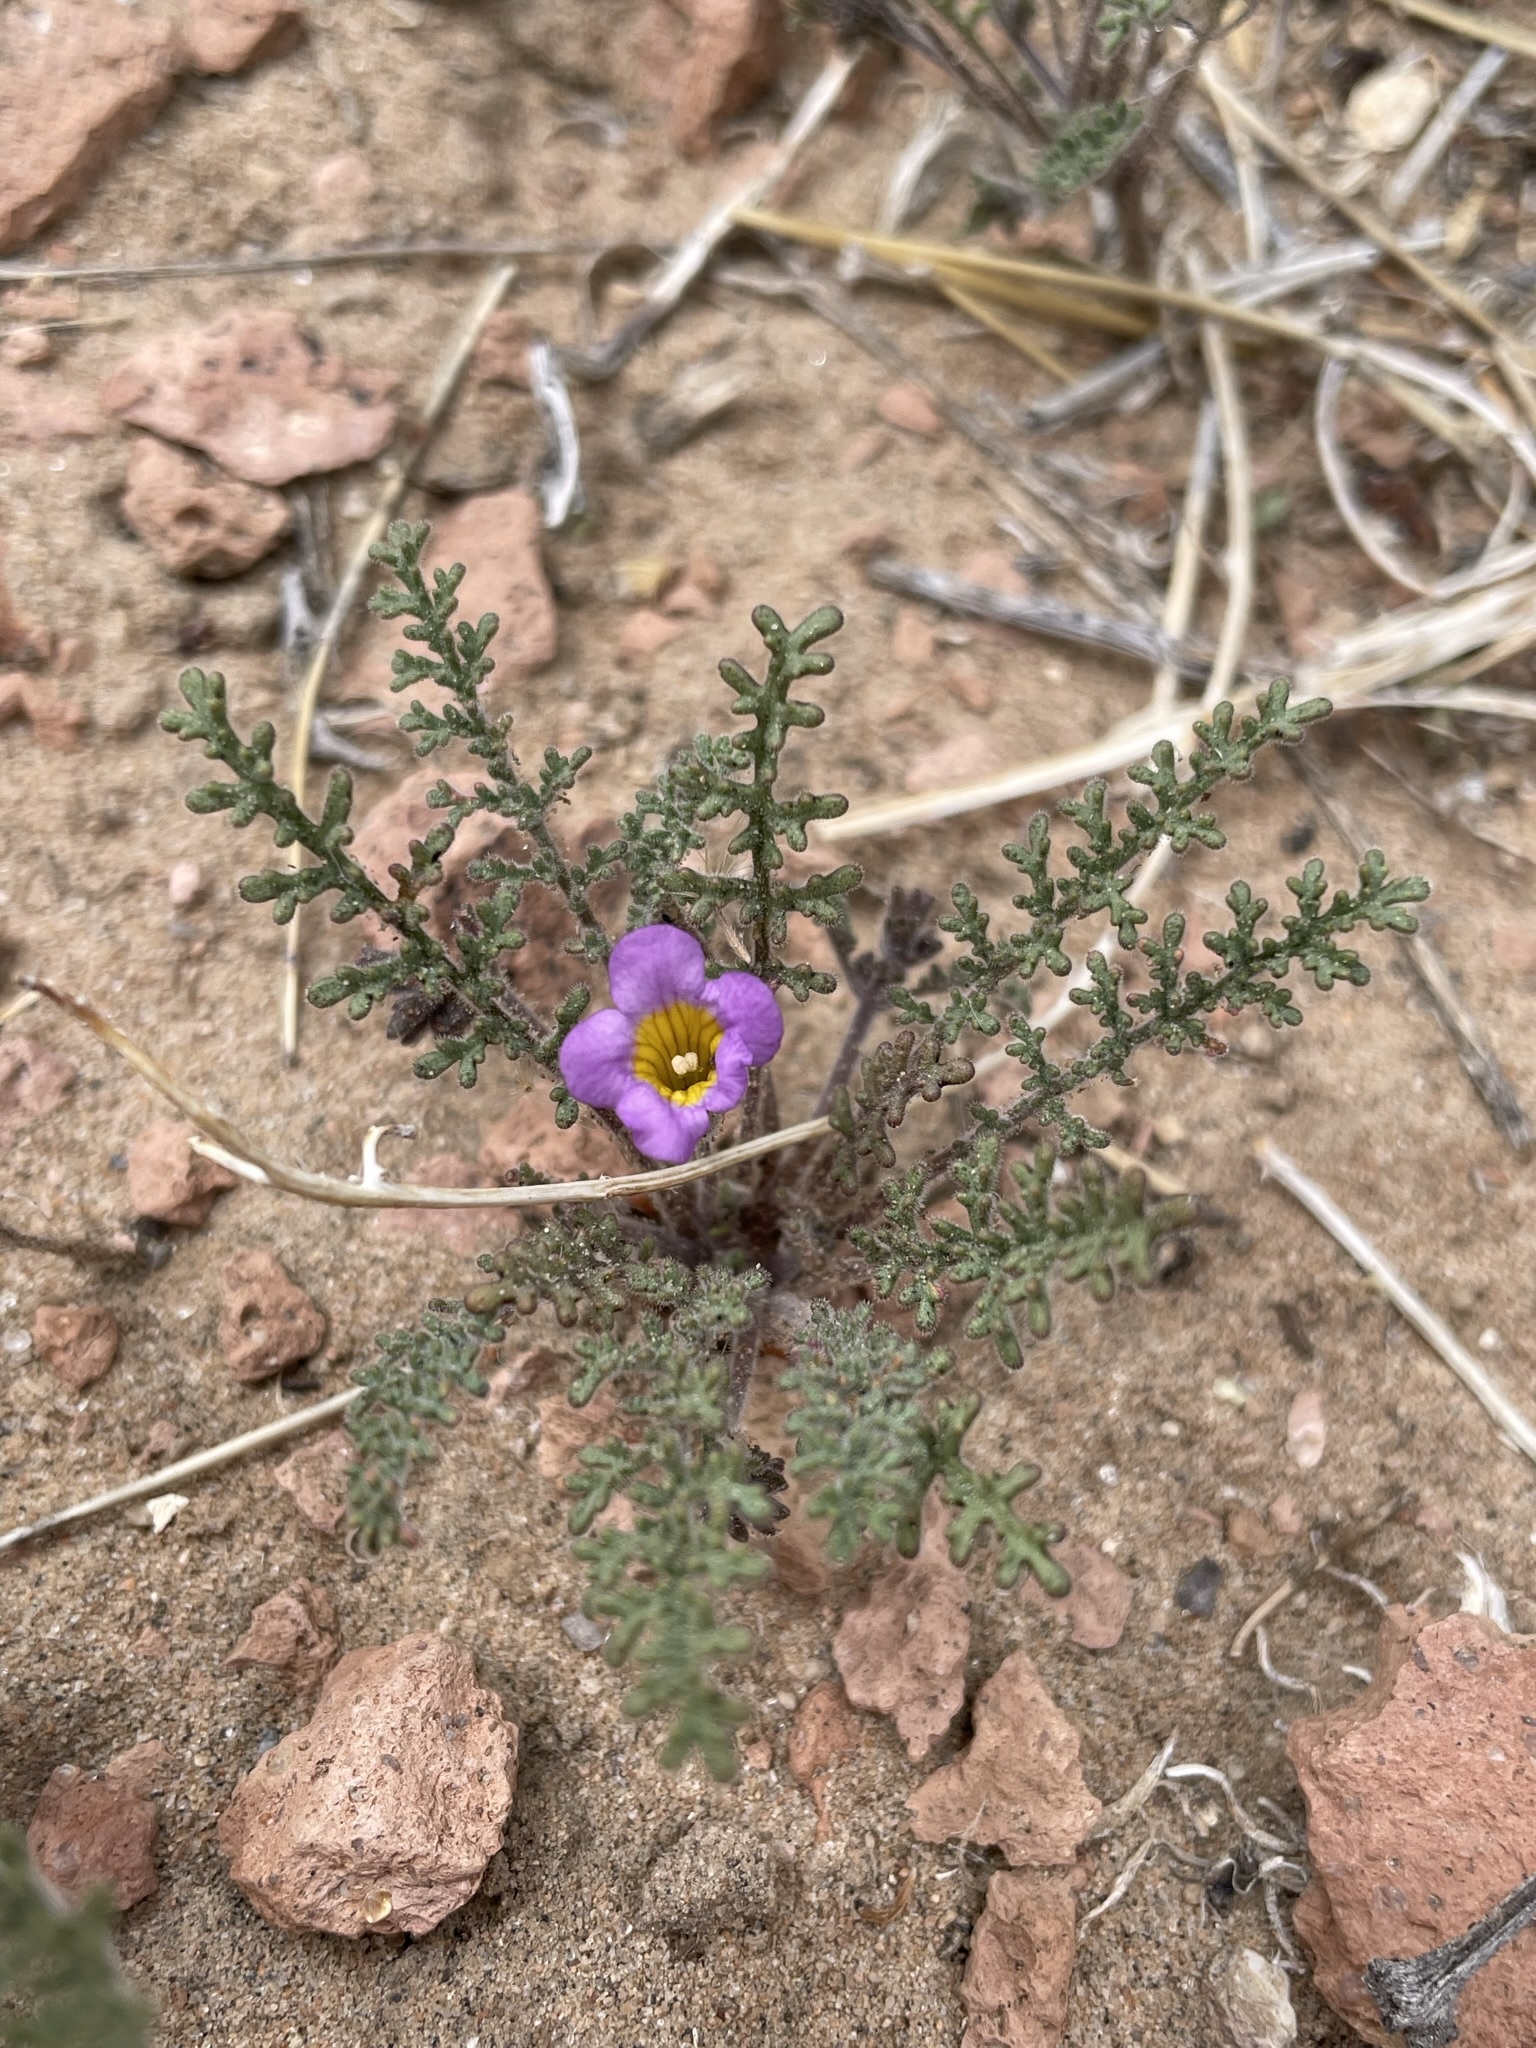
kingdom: Plantae
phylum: Tracheophyta
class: Magnoliopsida
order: Boraginales
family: Hydrophyllaceae
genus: Phacelia
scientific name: Phacelia bicolor
